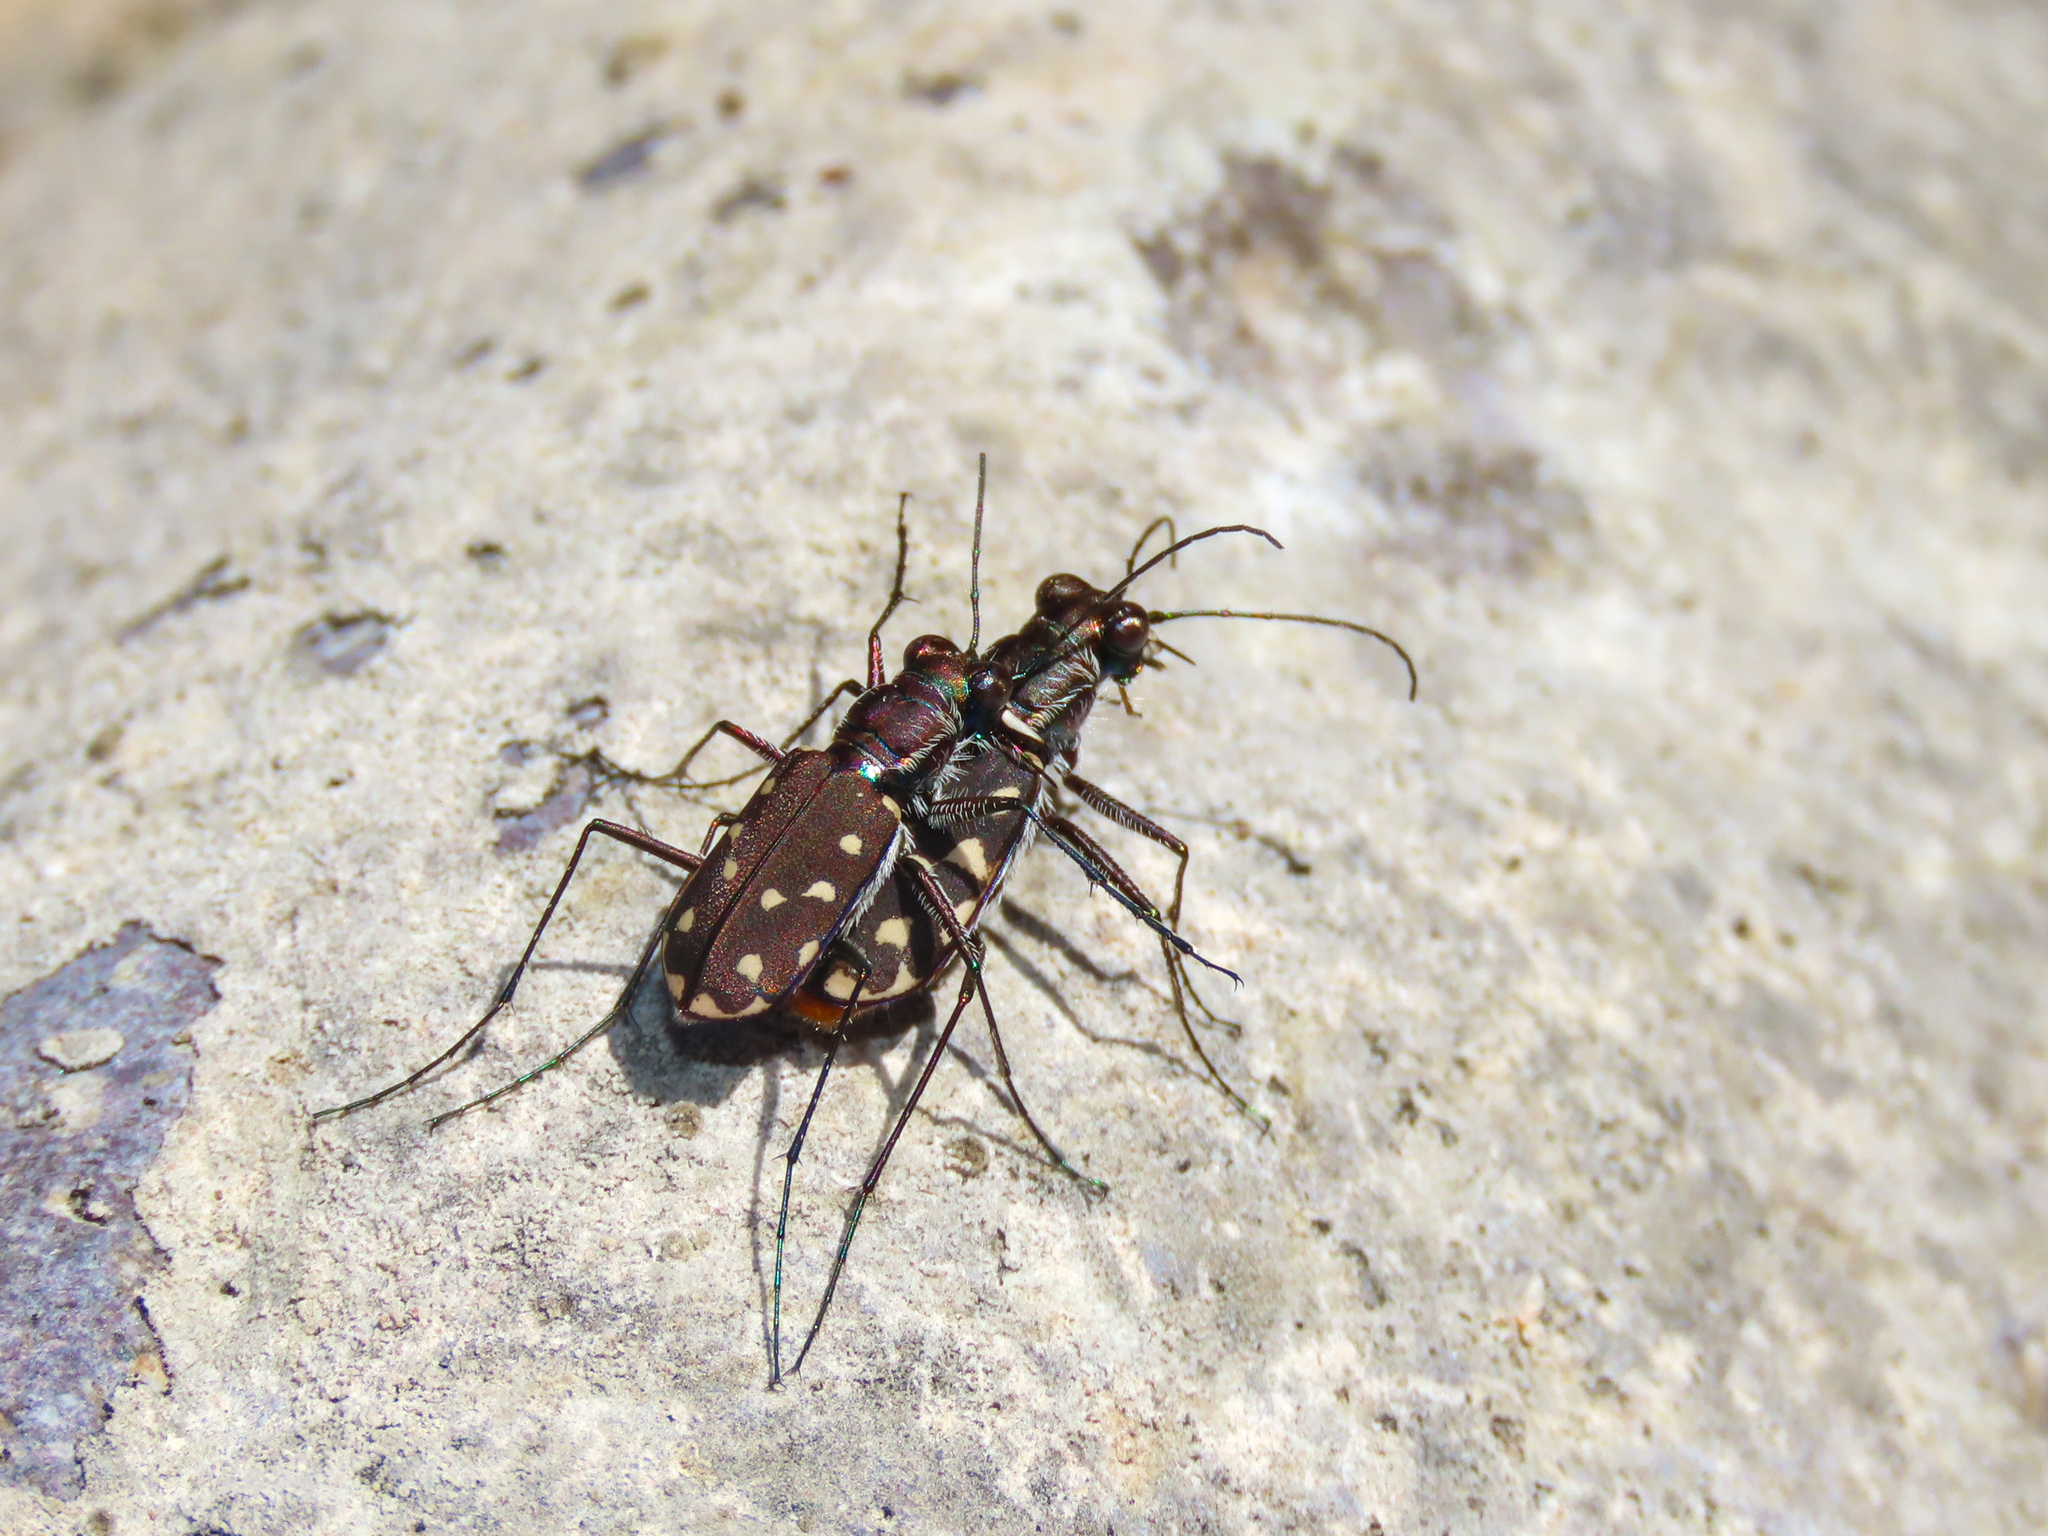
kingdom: Animalia
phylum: Arthropoda
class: Insecta
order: Coleoptera
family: Carabidae
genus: Cicindela
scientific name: Cicindela sedecimpunctata
